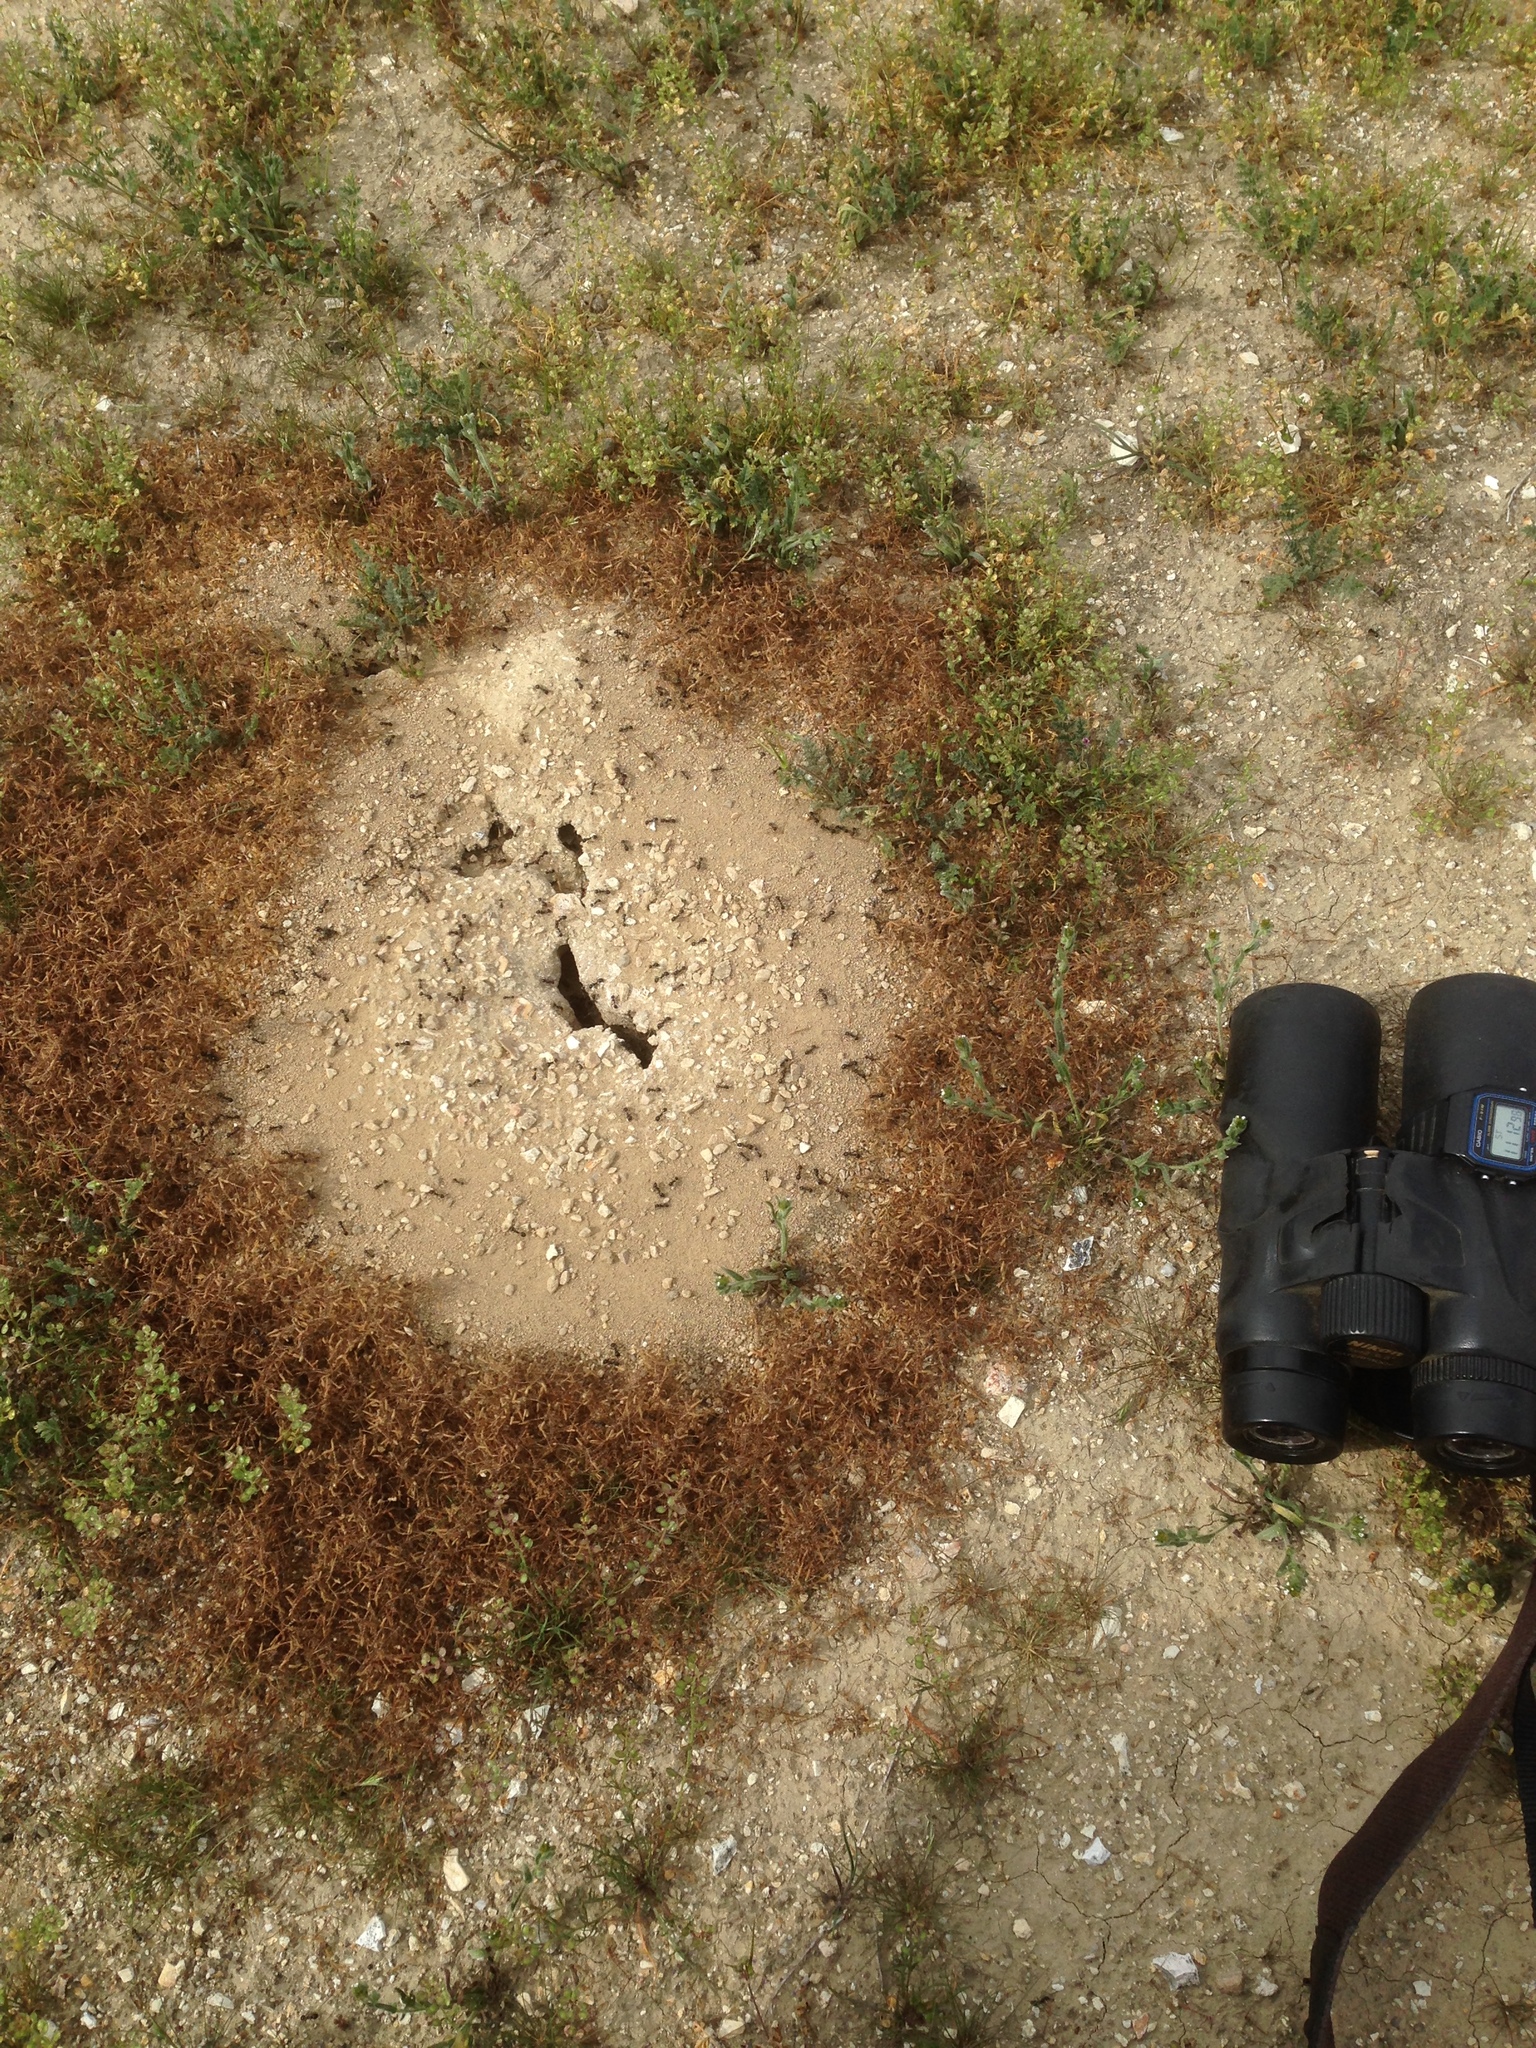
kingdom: Animalia
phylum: Arthropoda
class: Insecta
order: Hymenoptera
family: Formicidae
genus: Messor
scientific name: Messor pergandei
